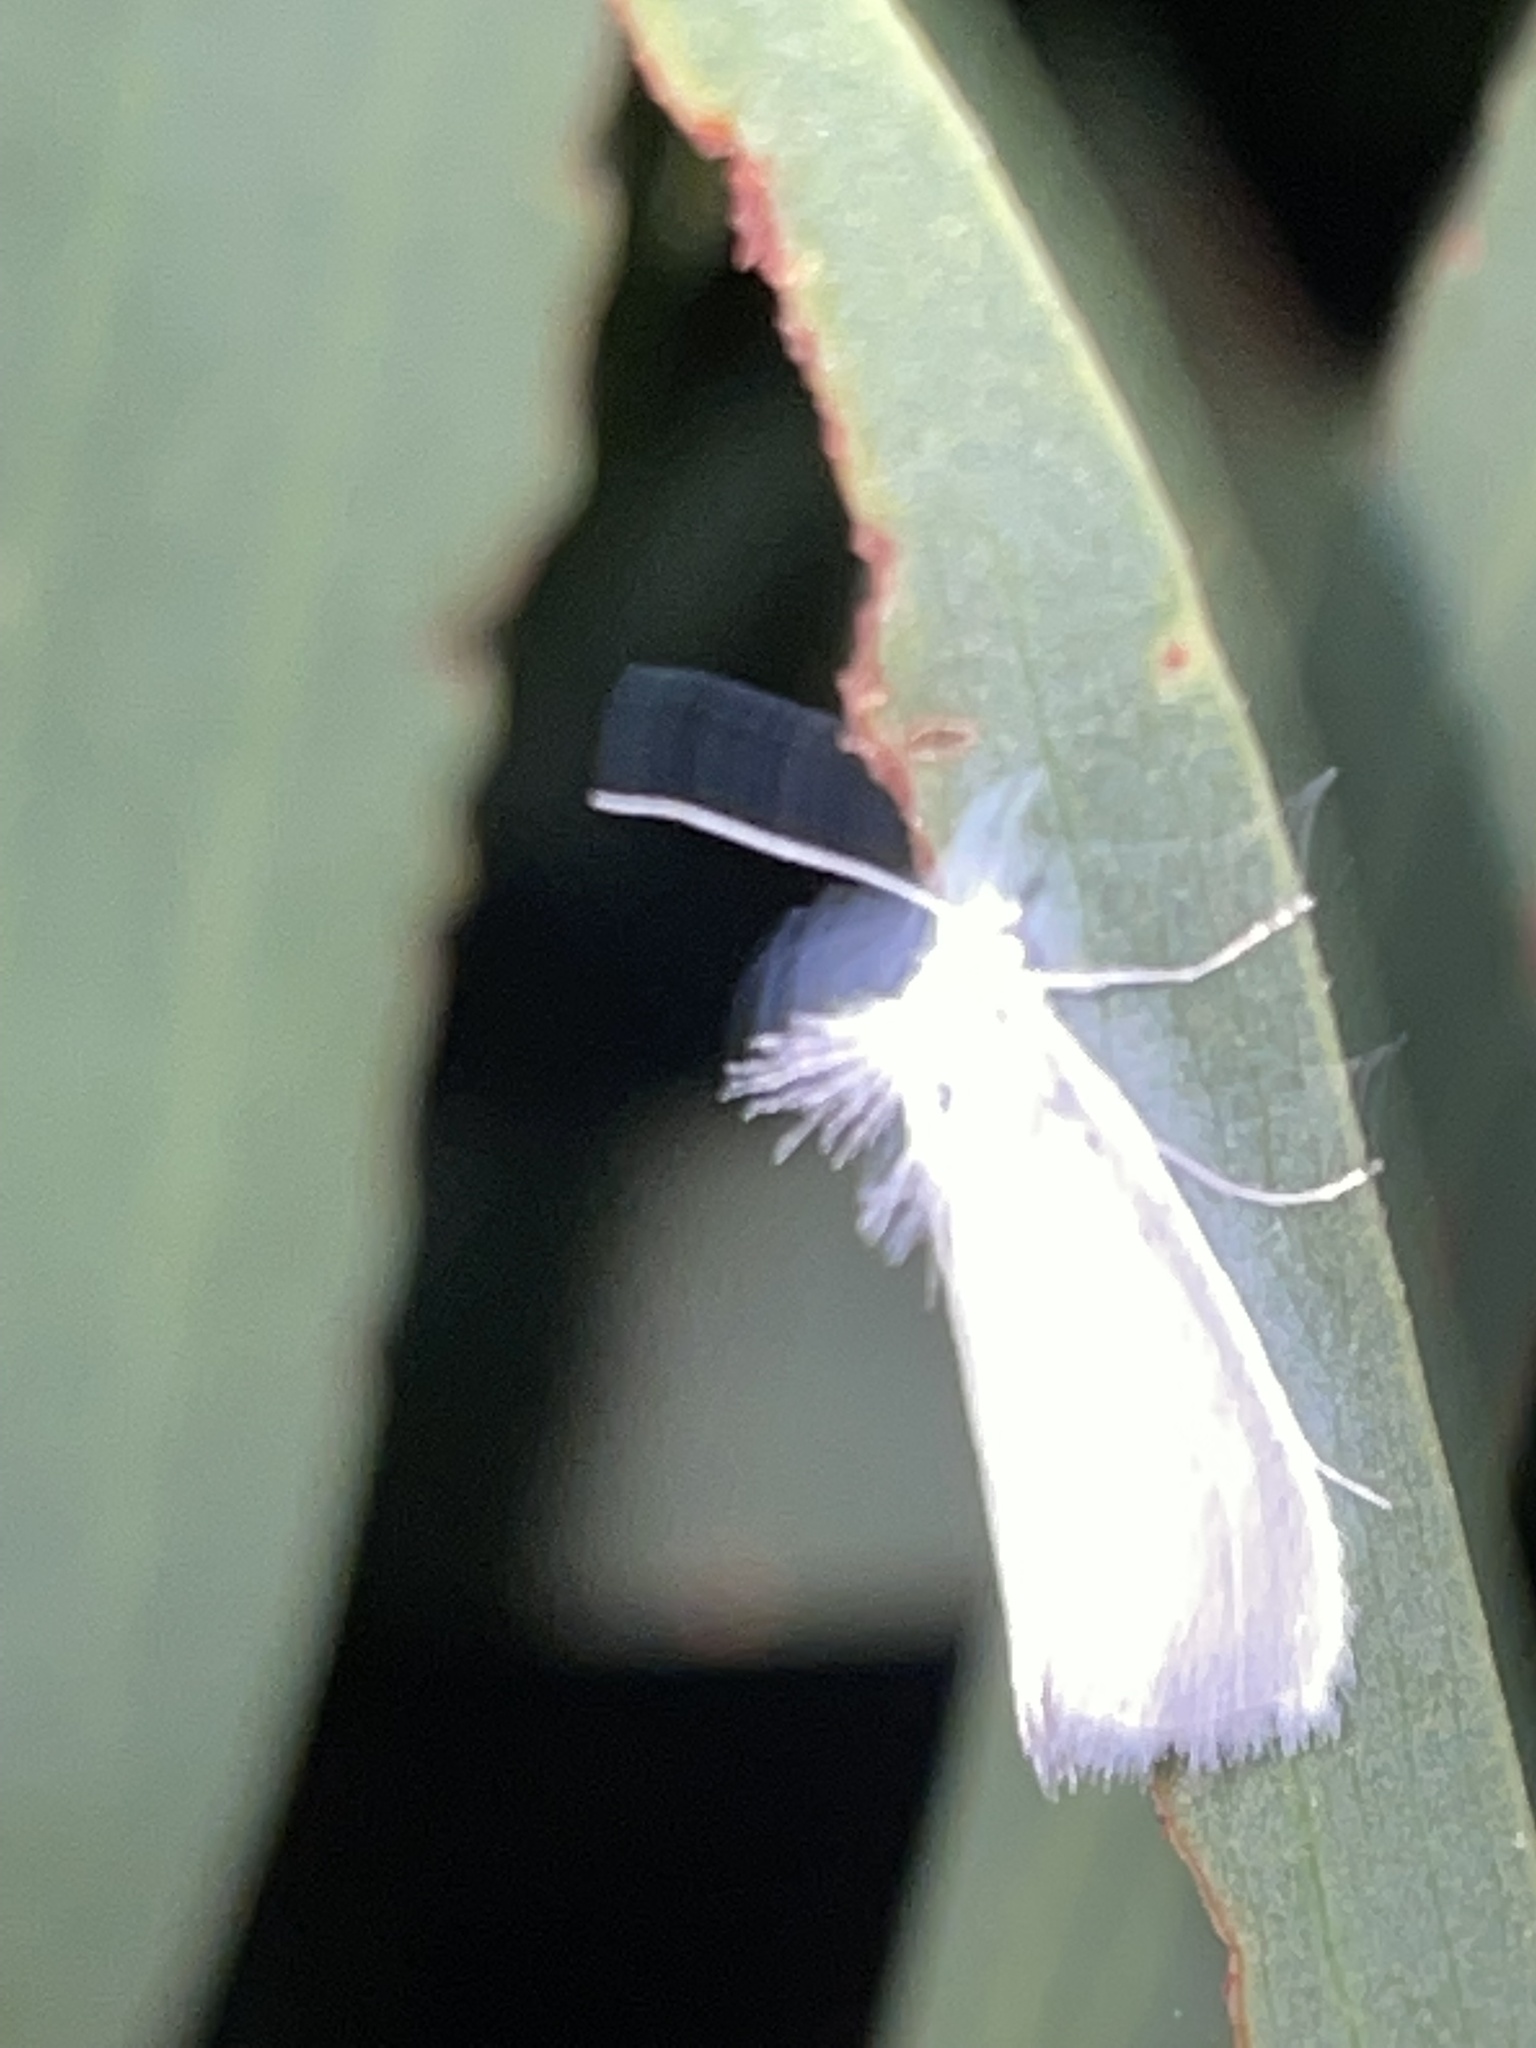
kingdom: Animalia
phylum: Arthropoda
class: Insecta
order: Lepidoptera
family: Crambidae
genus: Tipanaea
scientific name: Tipanaea patulella
